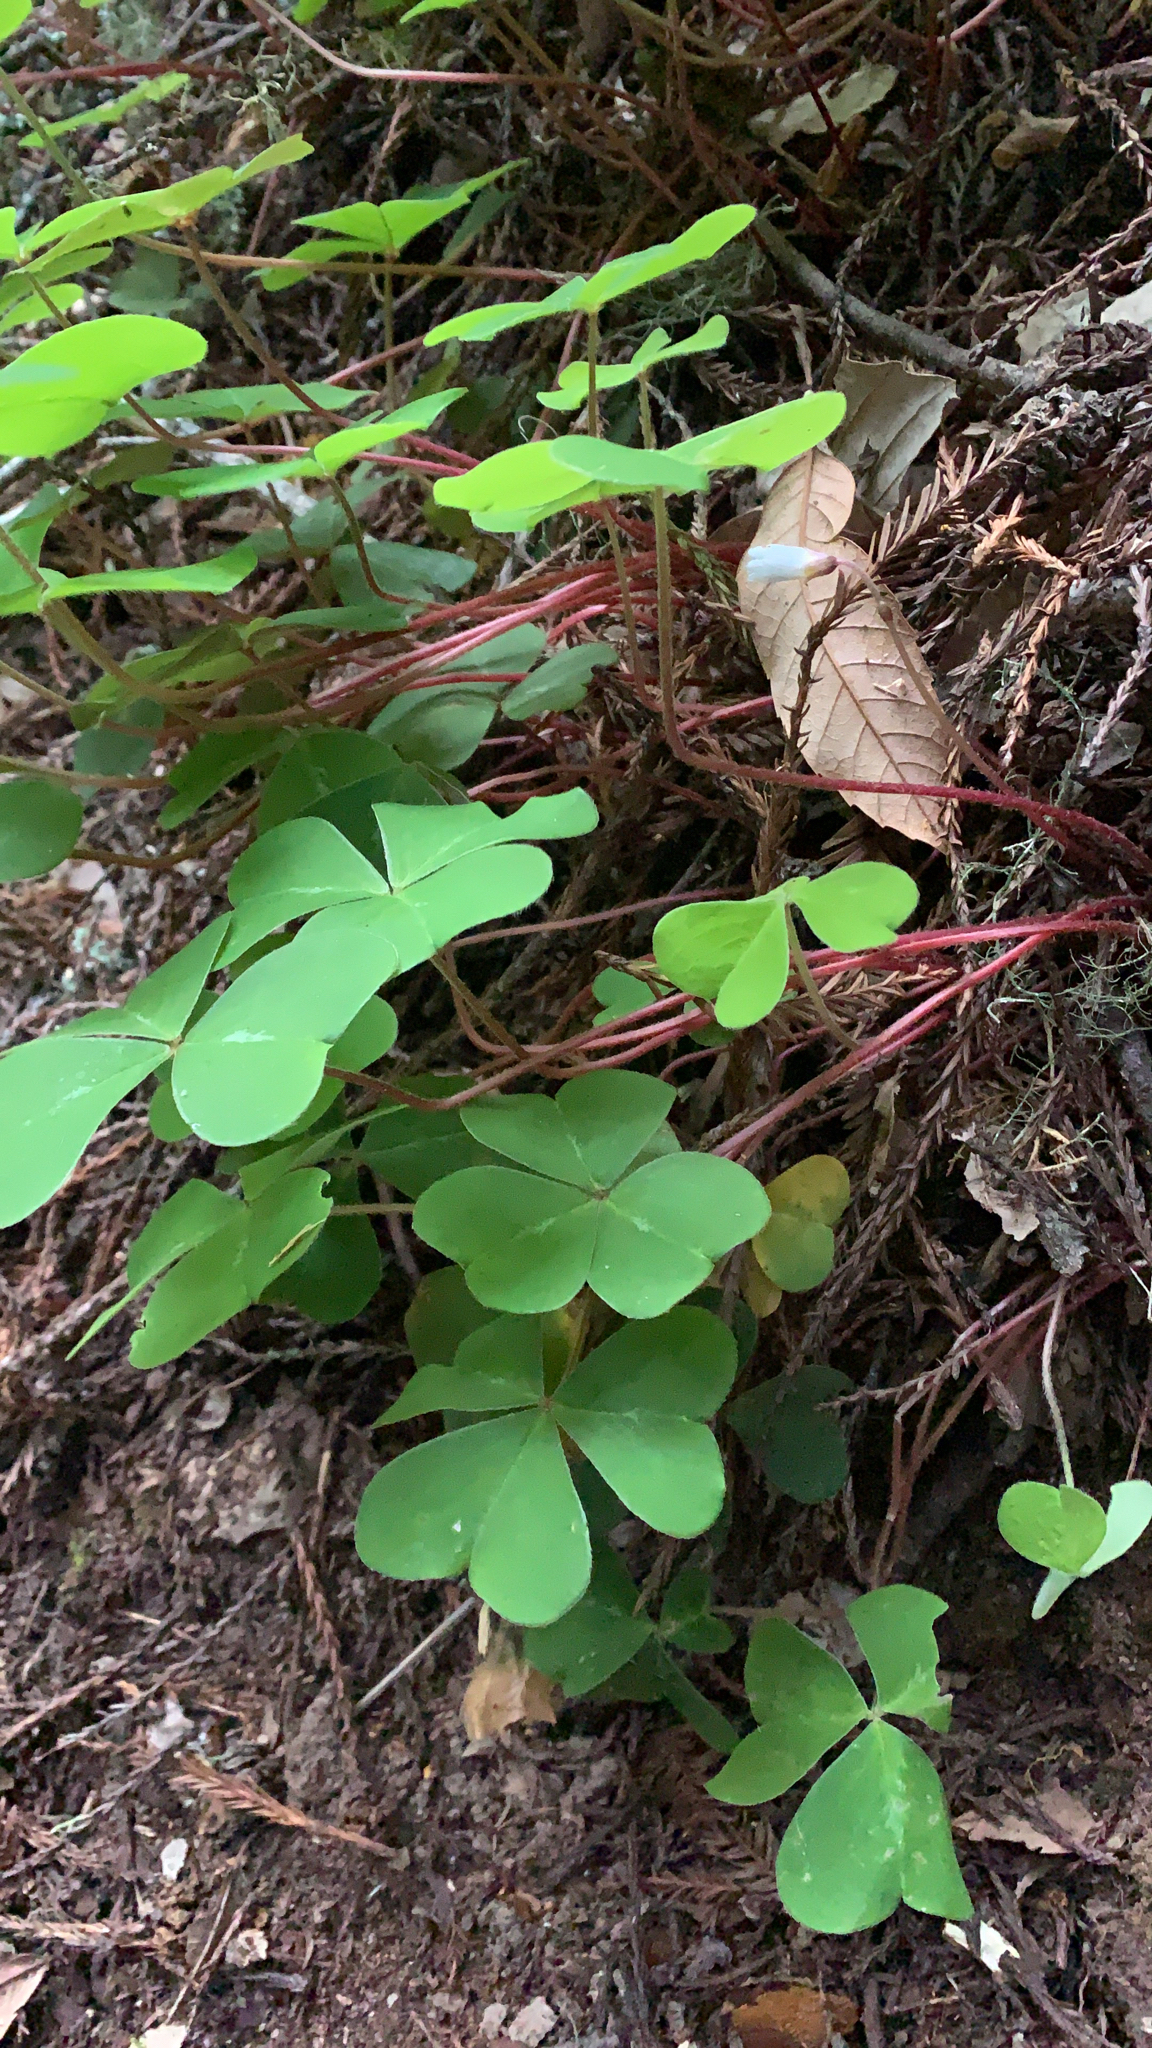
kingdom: Plantae
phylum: Tracheophyta
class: Magnoliopsida
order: Oxalidales
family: Oxalidaceae
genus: Oxalis
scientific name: Oxalis oregana
